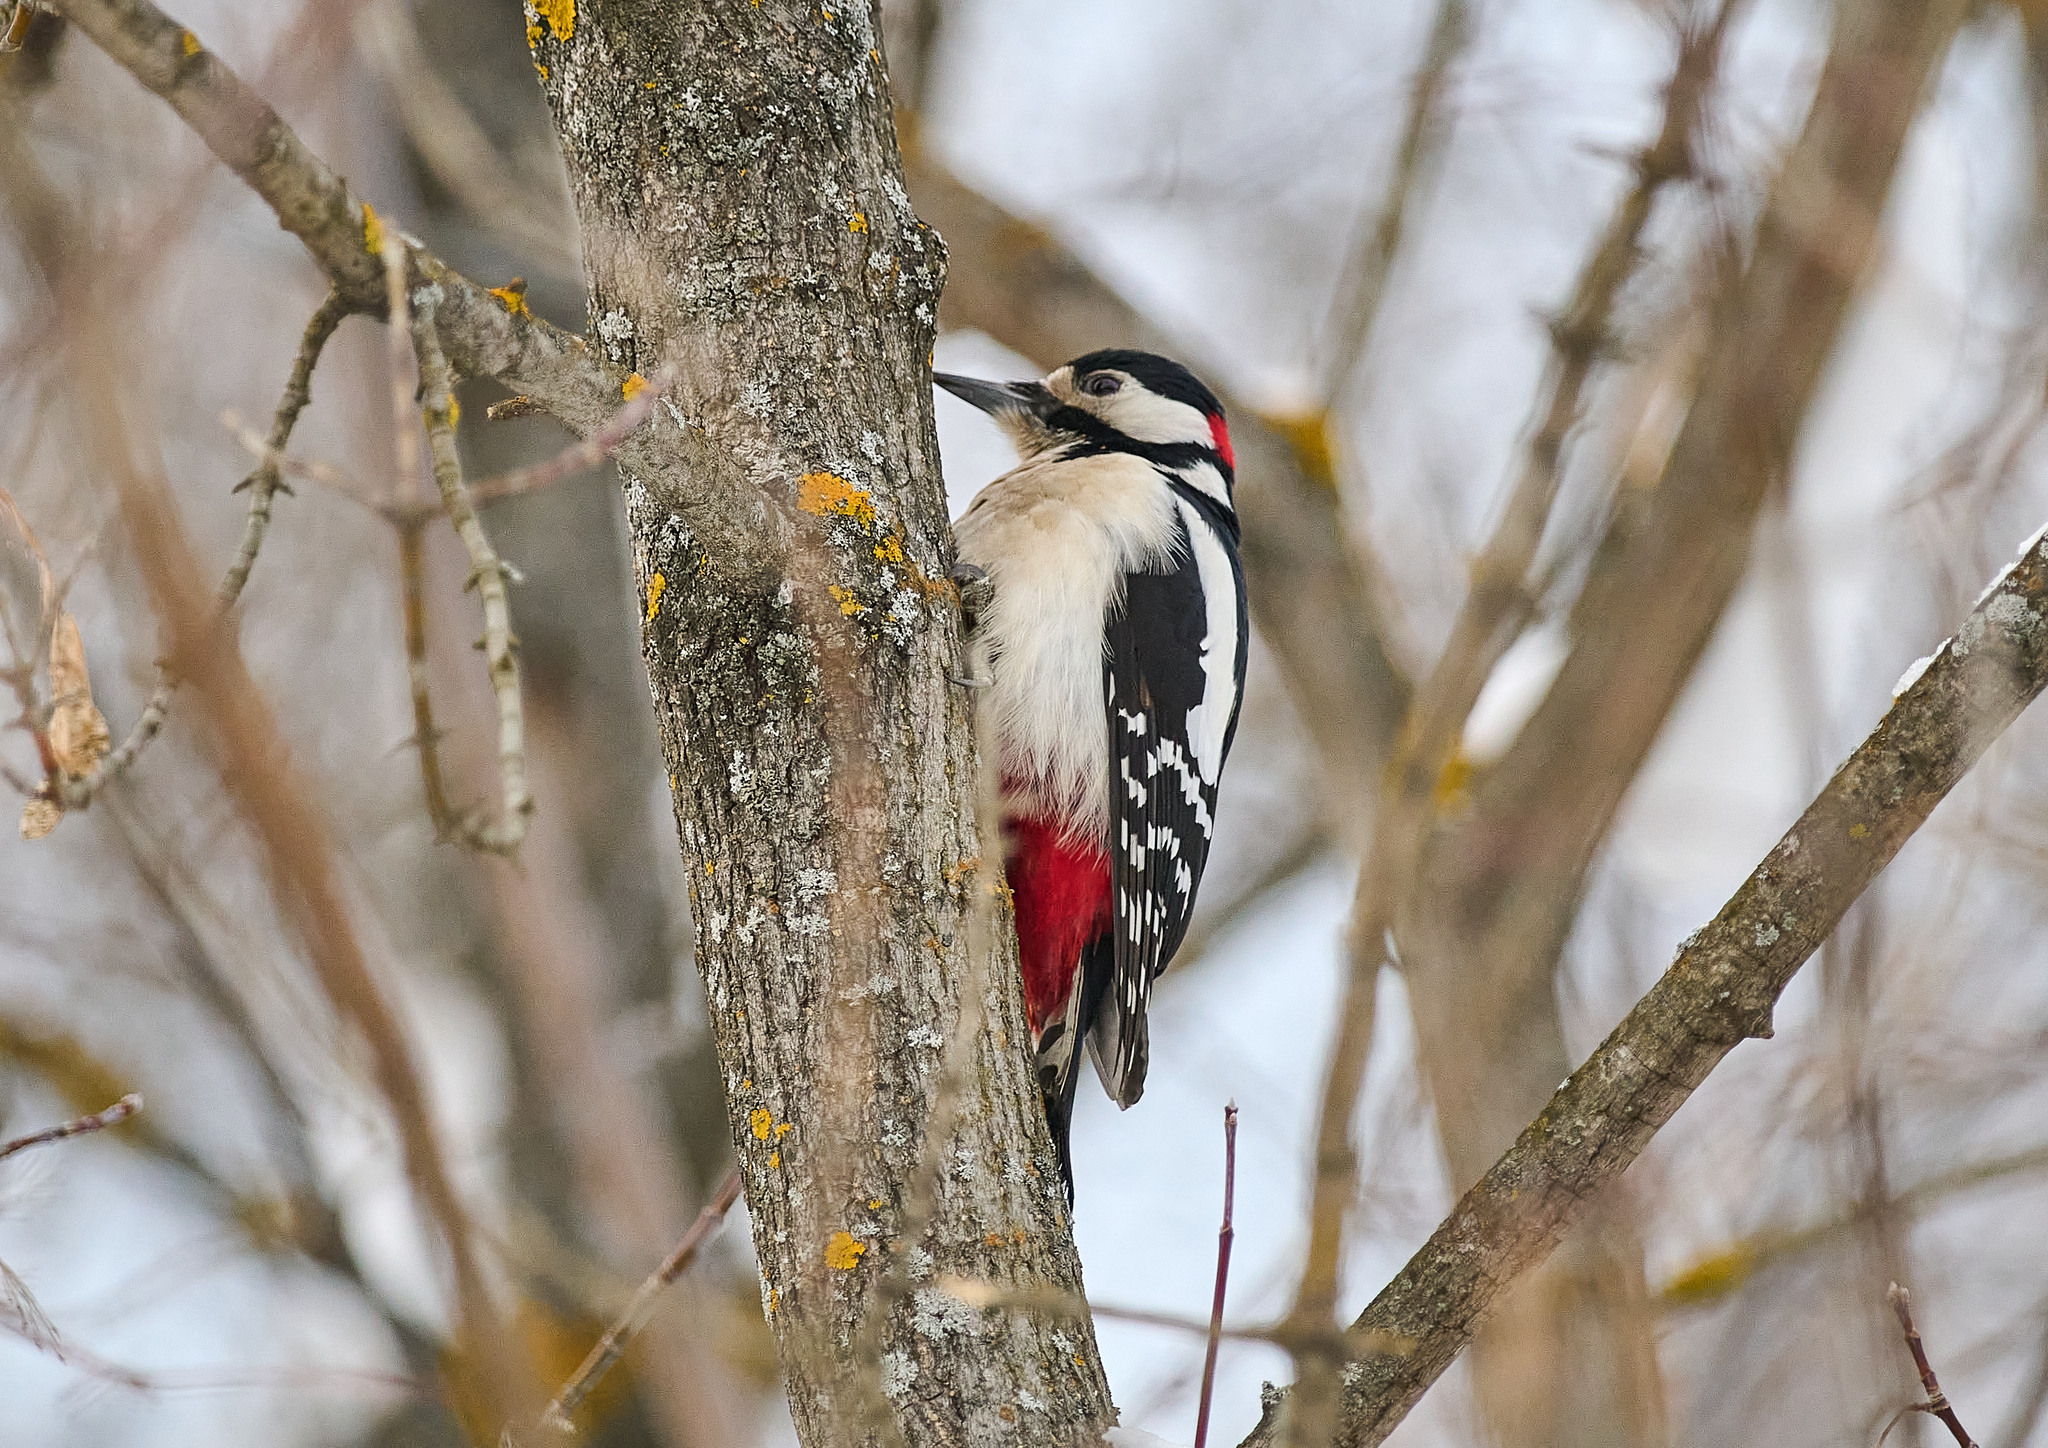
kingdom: Animalia
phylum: Chordata
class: Aves
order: Piciformes
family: Picidae
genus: Dendrocopos
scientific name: Dendrocopos major
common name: Great spotted woodpecker
